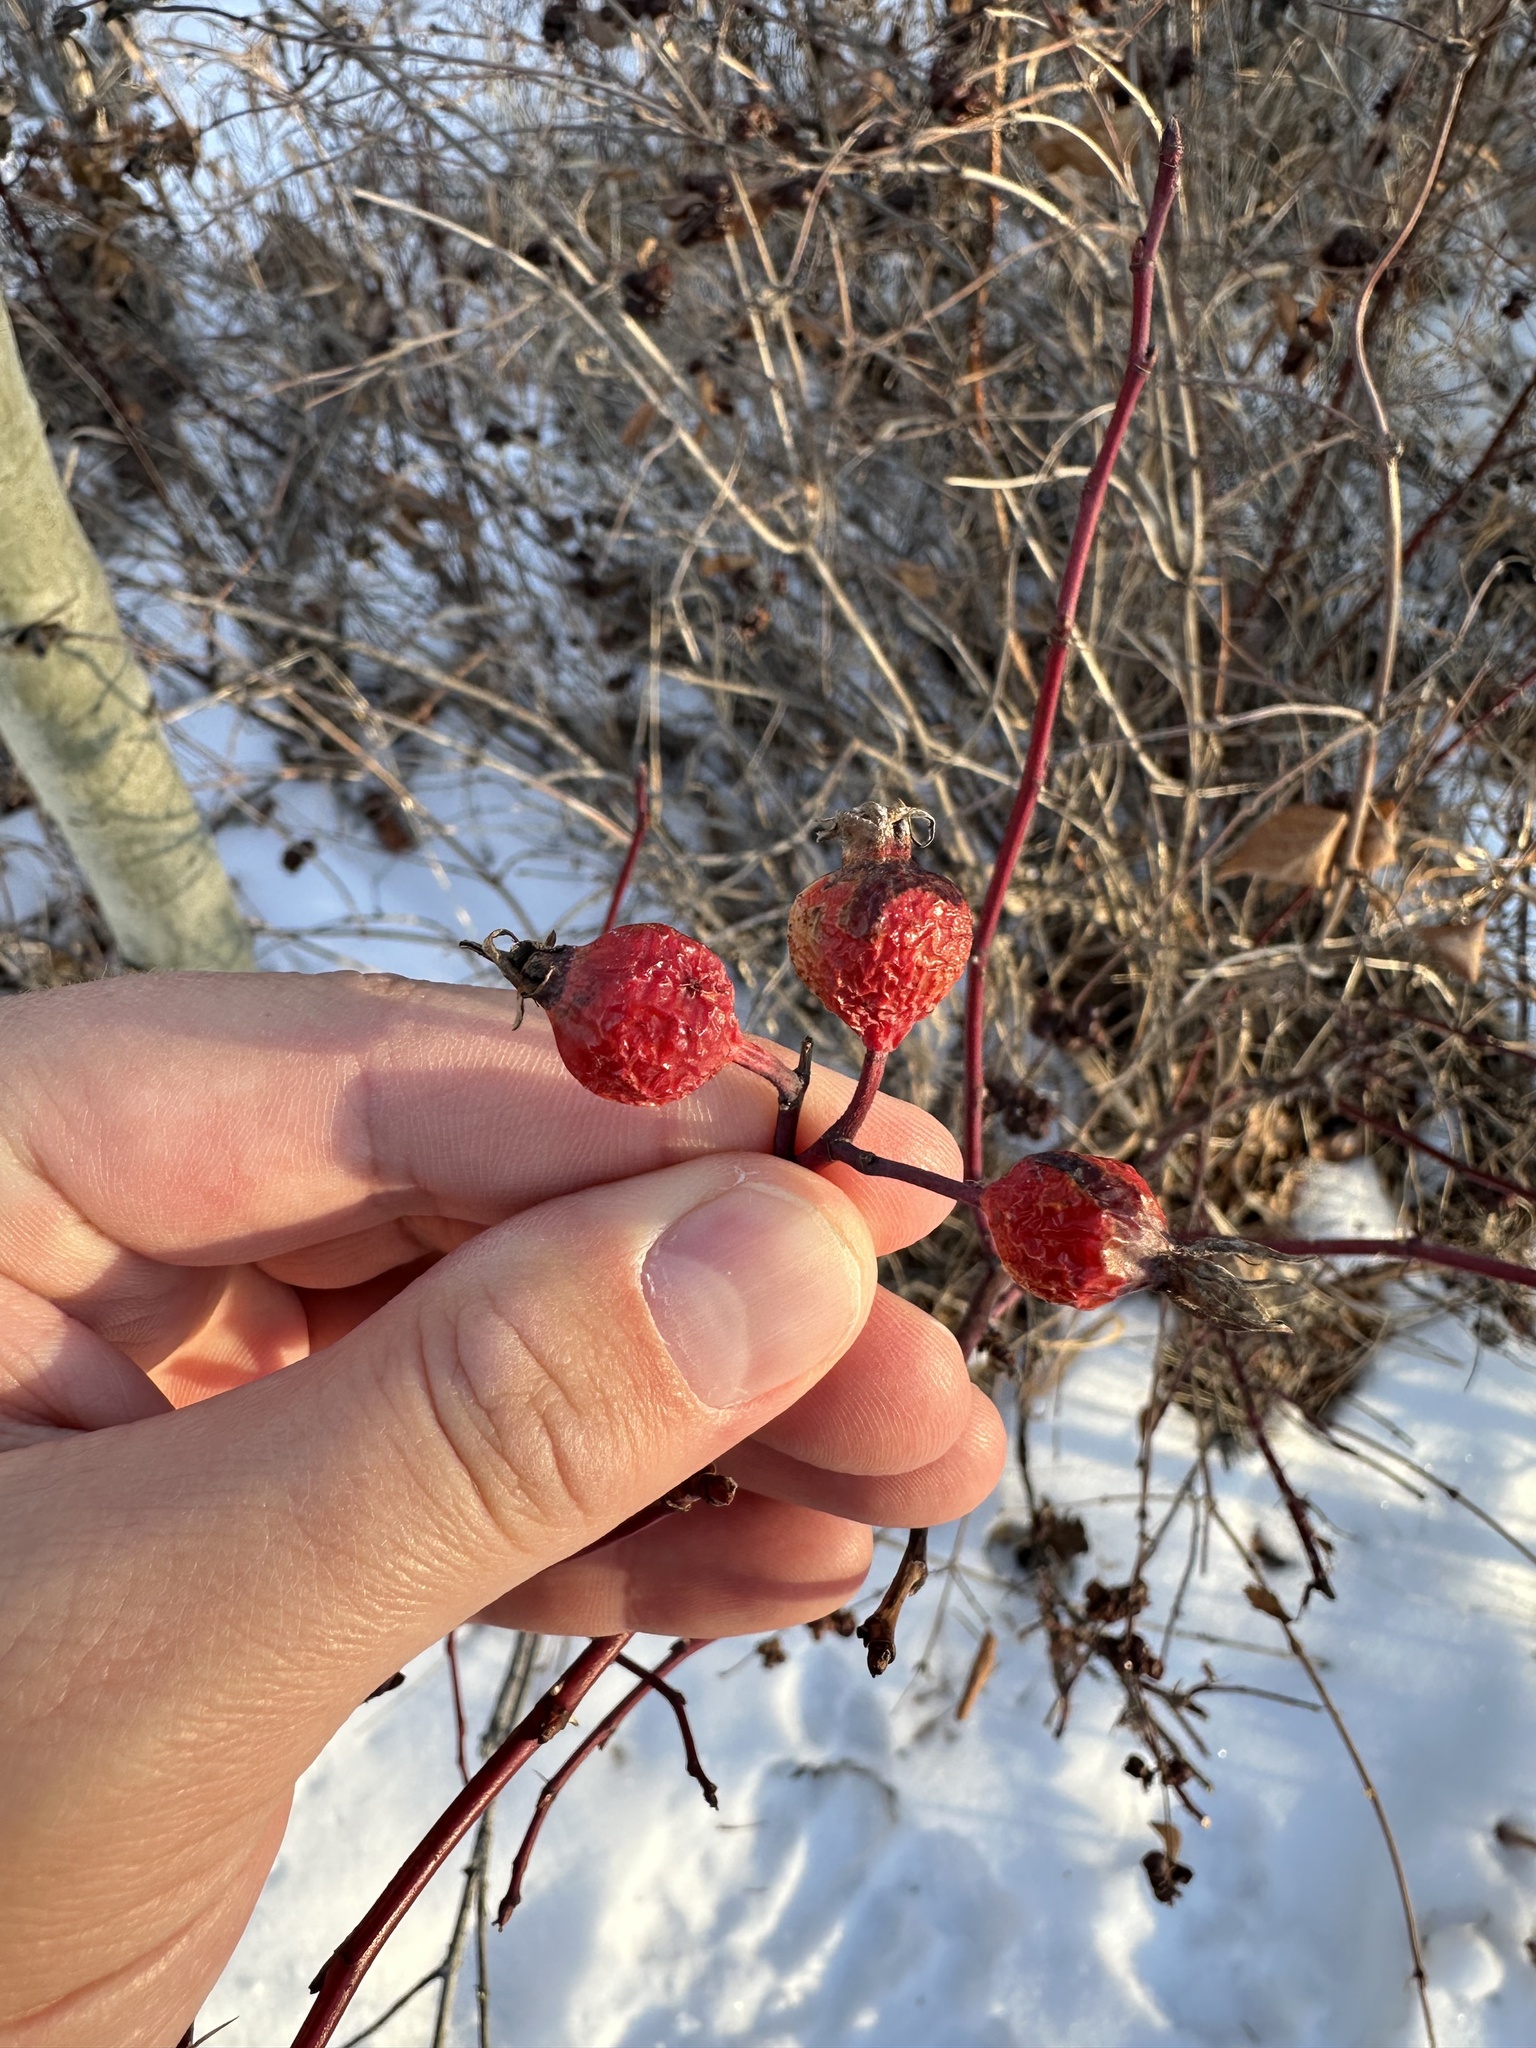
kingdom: Plantae
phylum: Tracheophyta
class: Magnoliopsida
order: Rosales
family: Rosaceae
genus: Rosa
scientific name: Rosa woodsii
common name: Woods's rose
